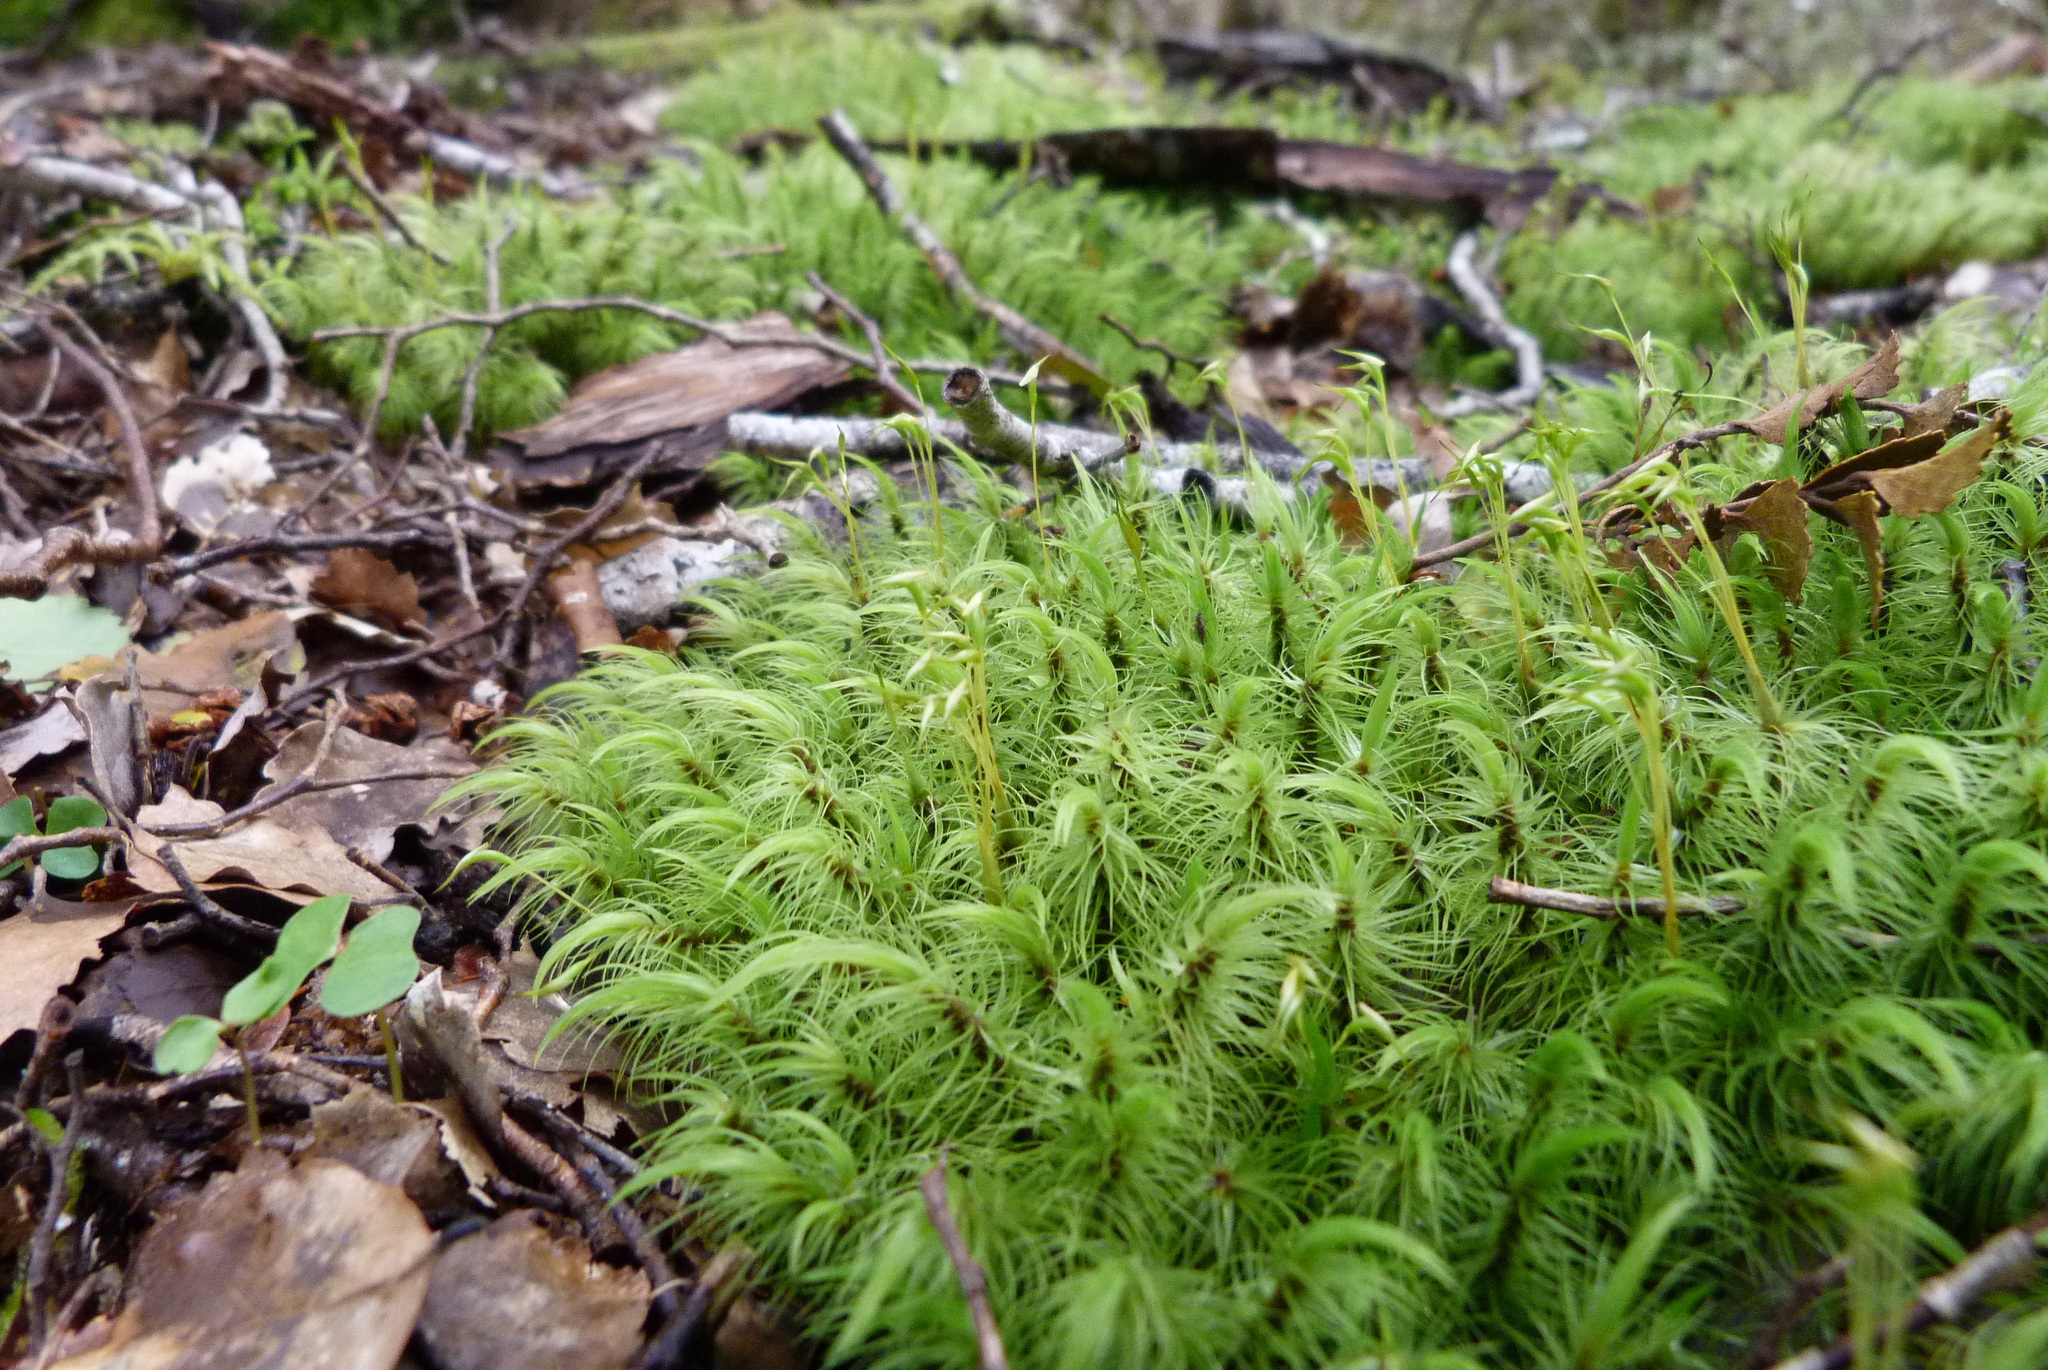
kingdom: Plantae
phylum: Bryophyta
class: Bryopsida
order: Dicranales
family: Dicranaceae
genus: Dicranoloma
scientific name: Dicranoloma plurisetum
